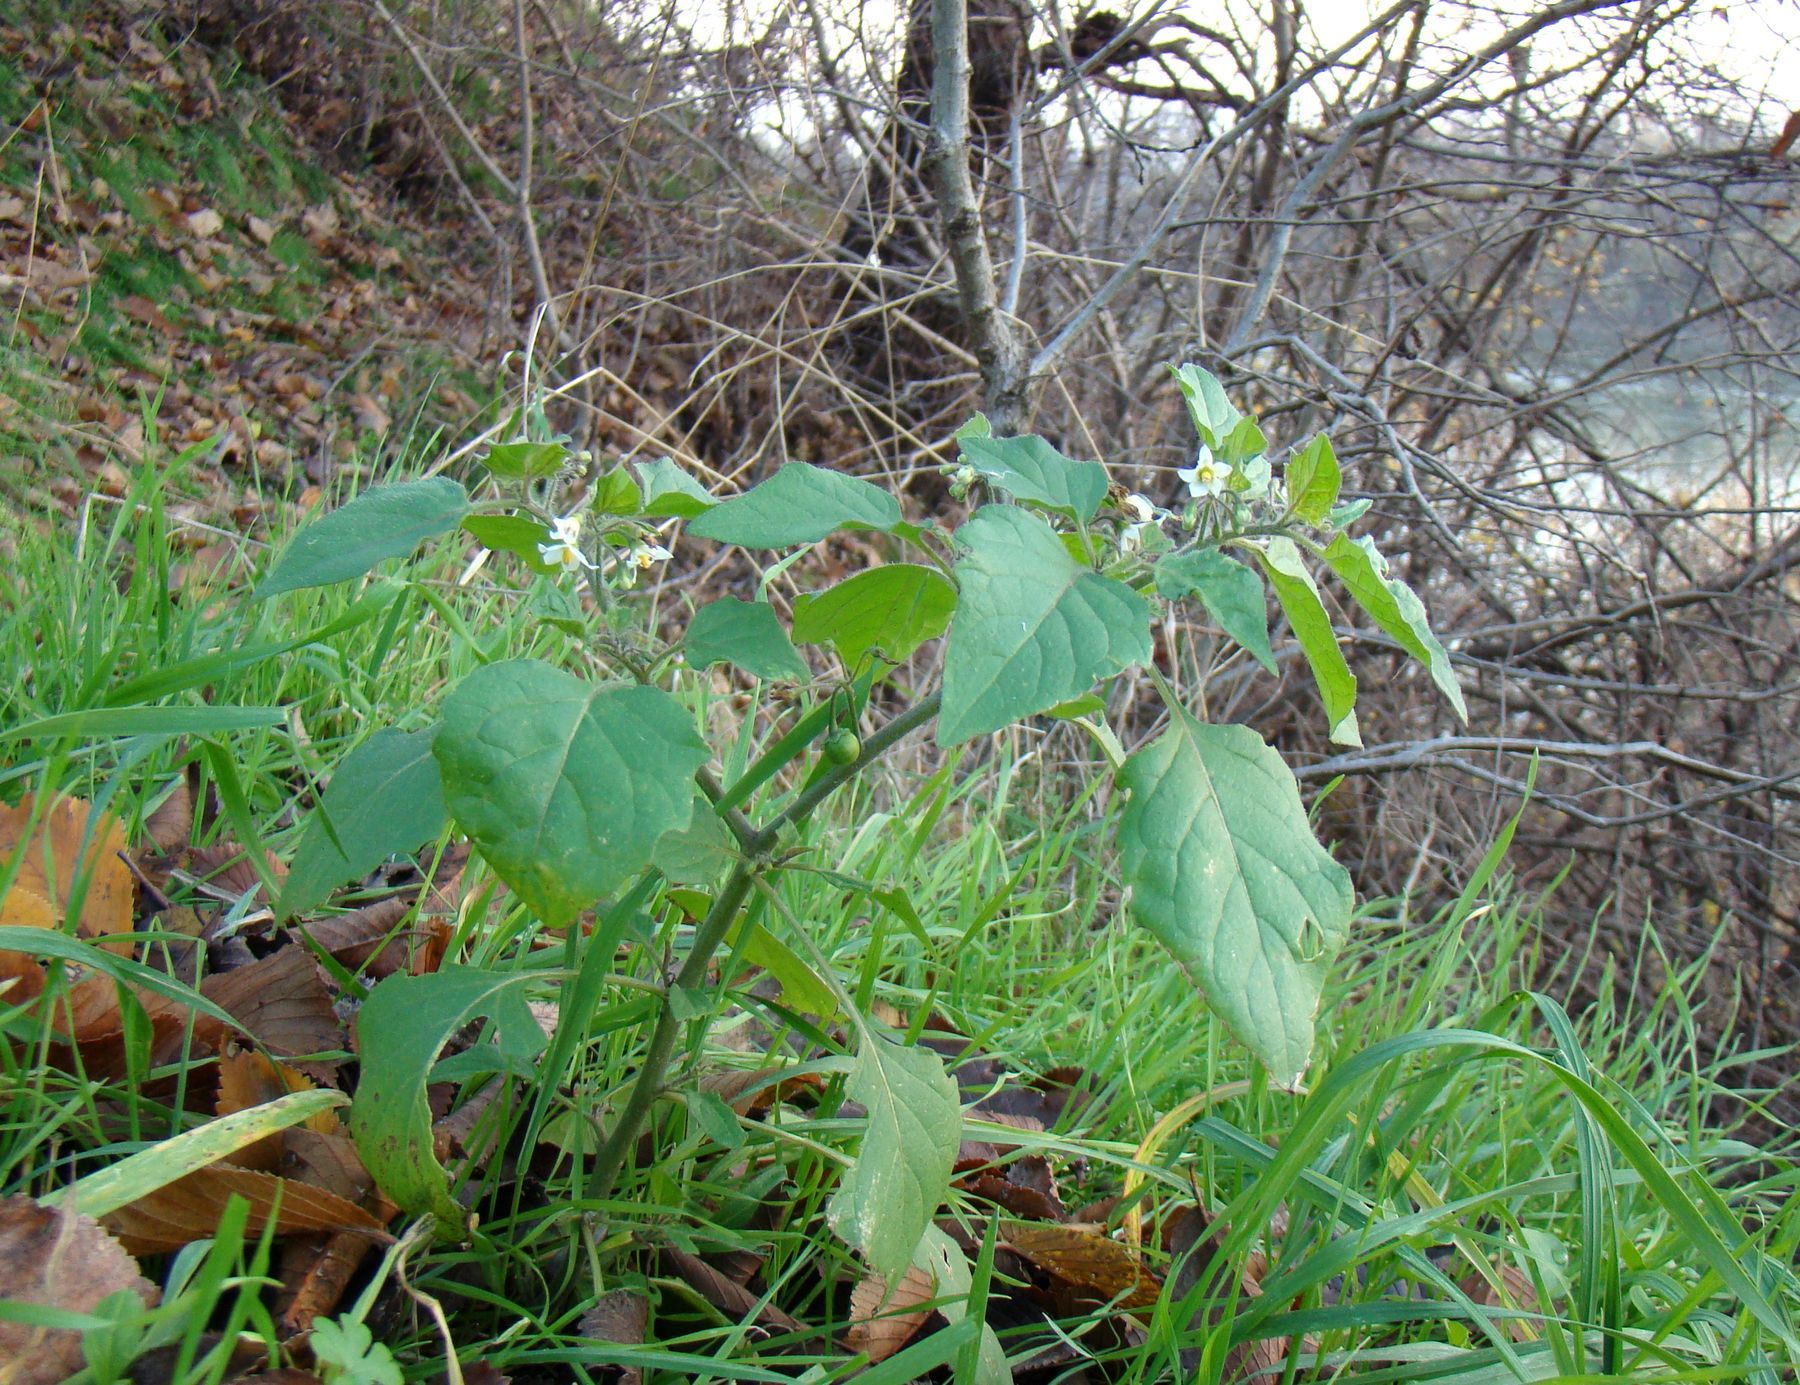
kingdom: Plantae
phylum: Tracheophyta
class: Magnoliopsida
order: Solanales
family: Solanaceae
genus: Solanum
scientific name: Solanum nigrum
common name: Black nightshade
